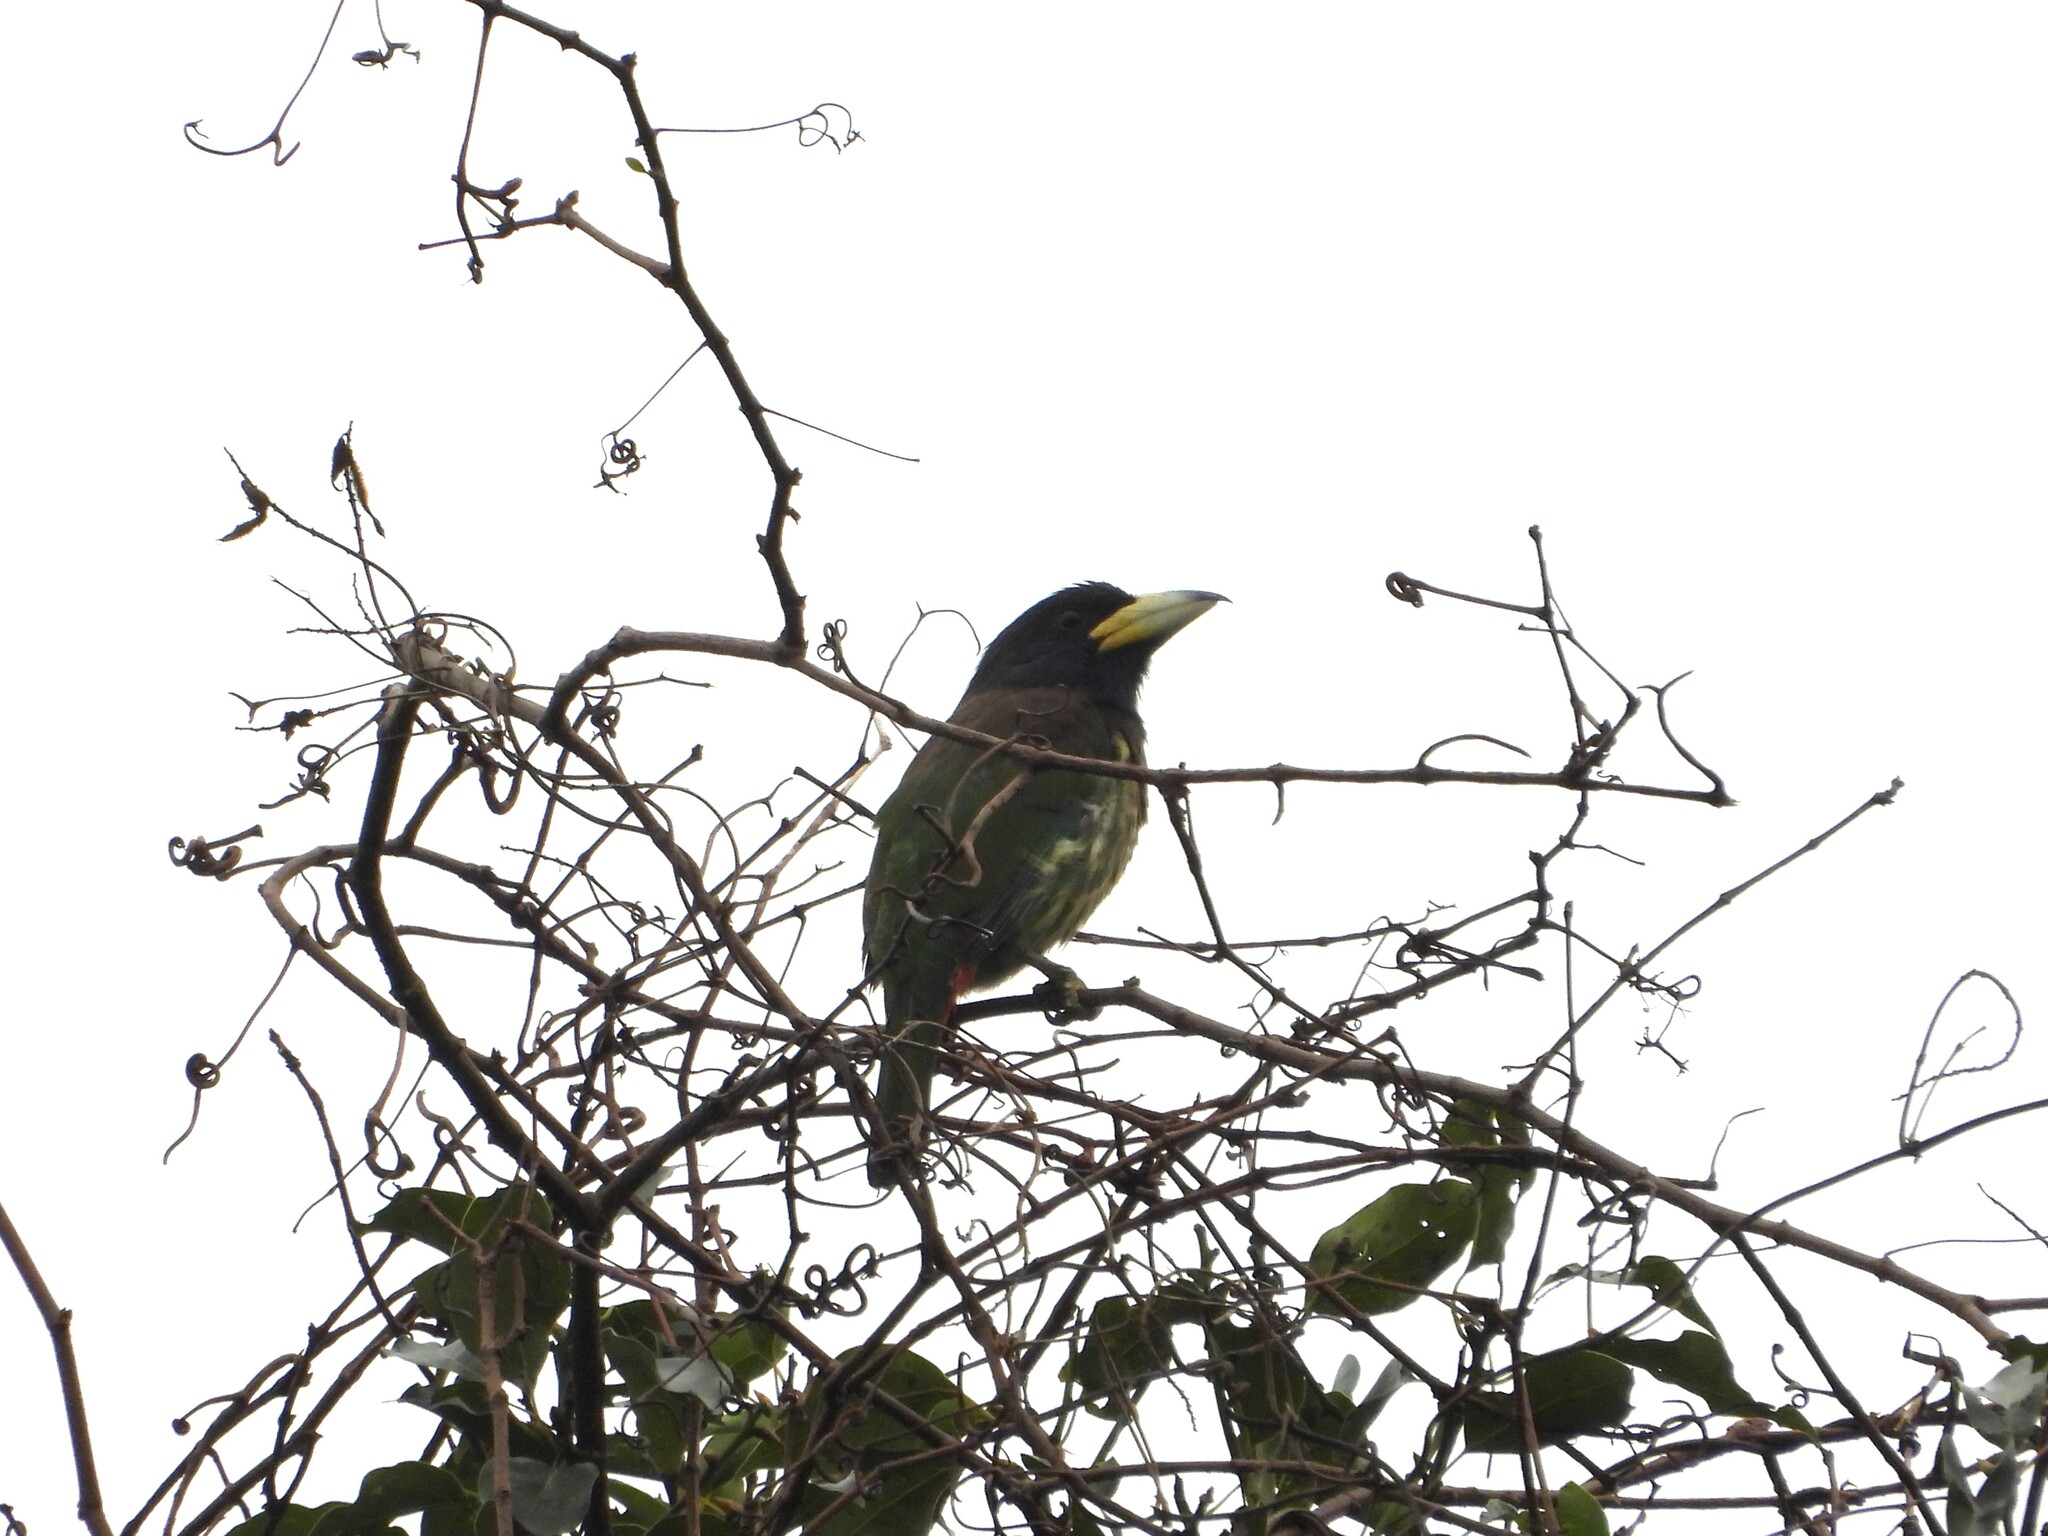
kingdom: Animalia
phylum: Chordata
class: Aves
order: Piciformes
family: Megalaimidae
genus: Psilopogon
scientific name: Psilopogon virens
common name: Great barbet
